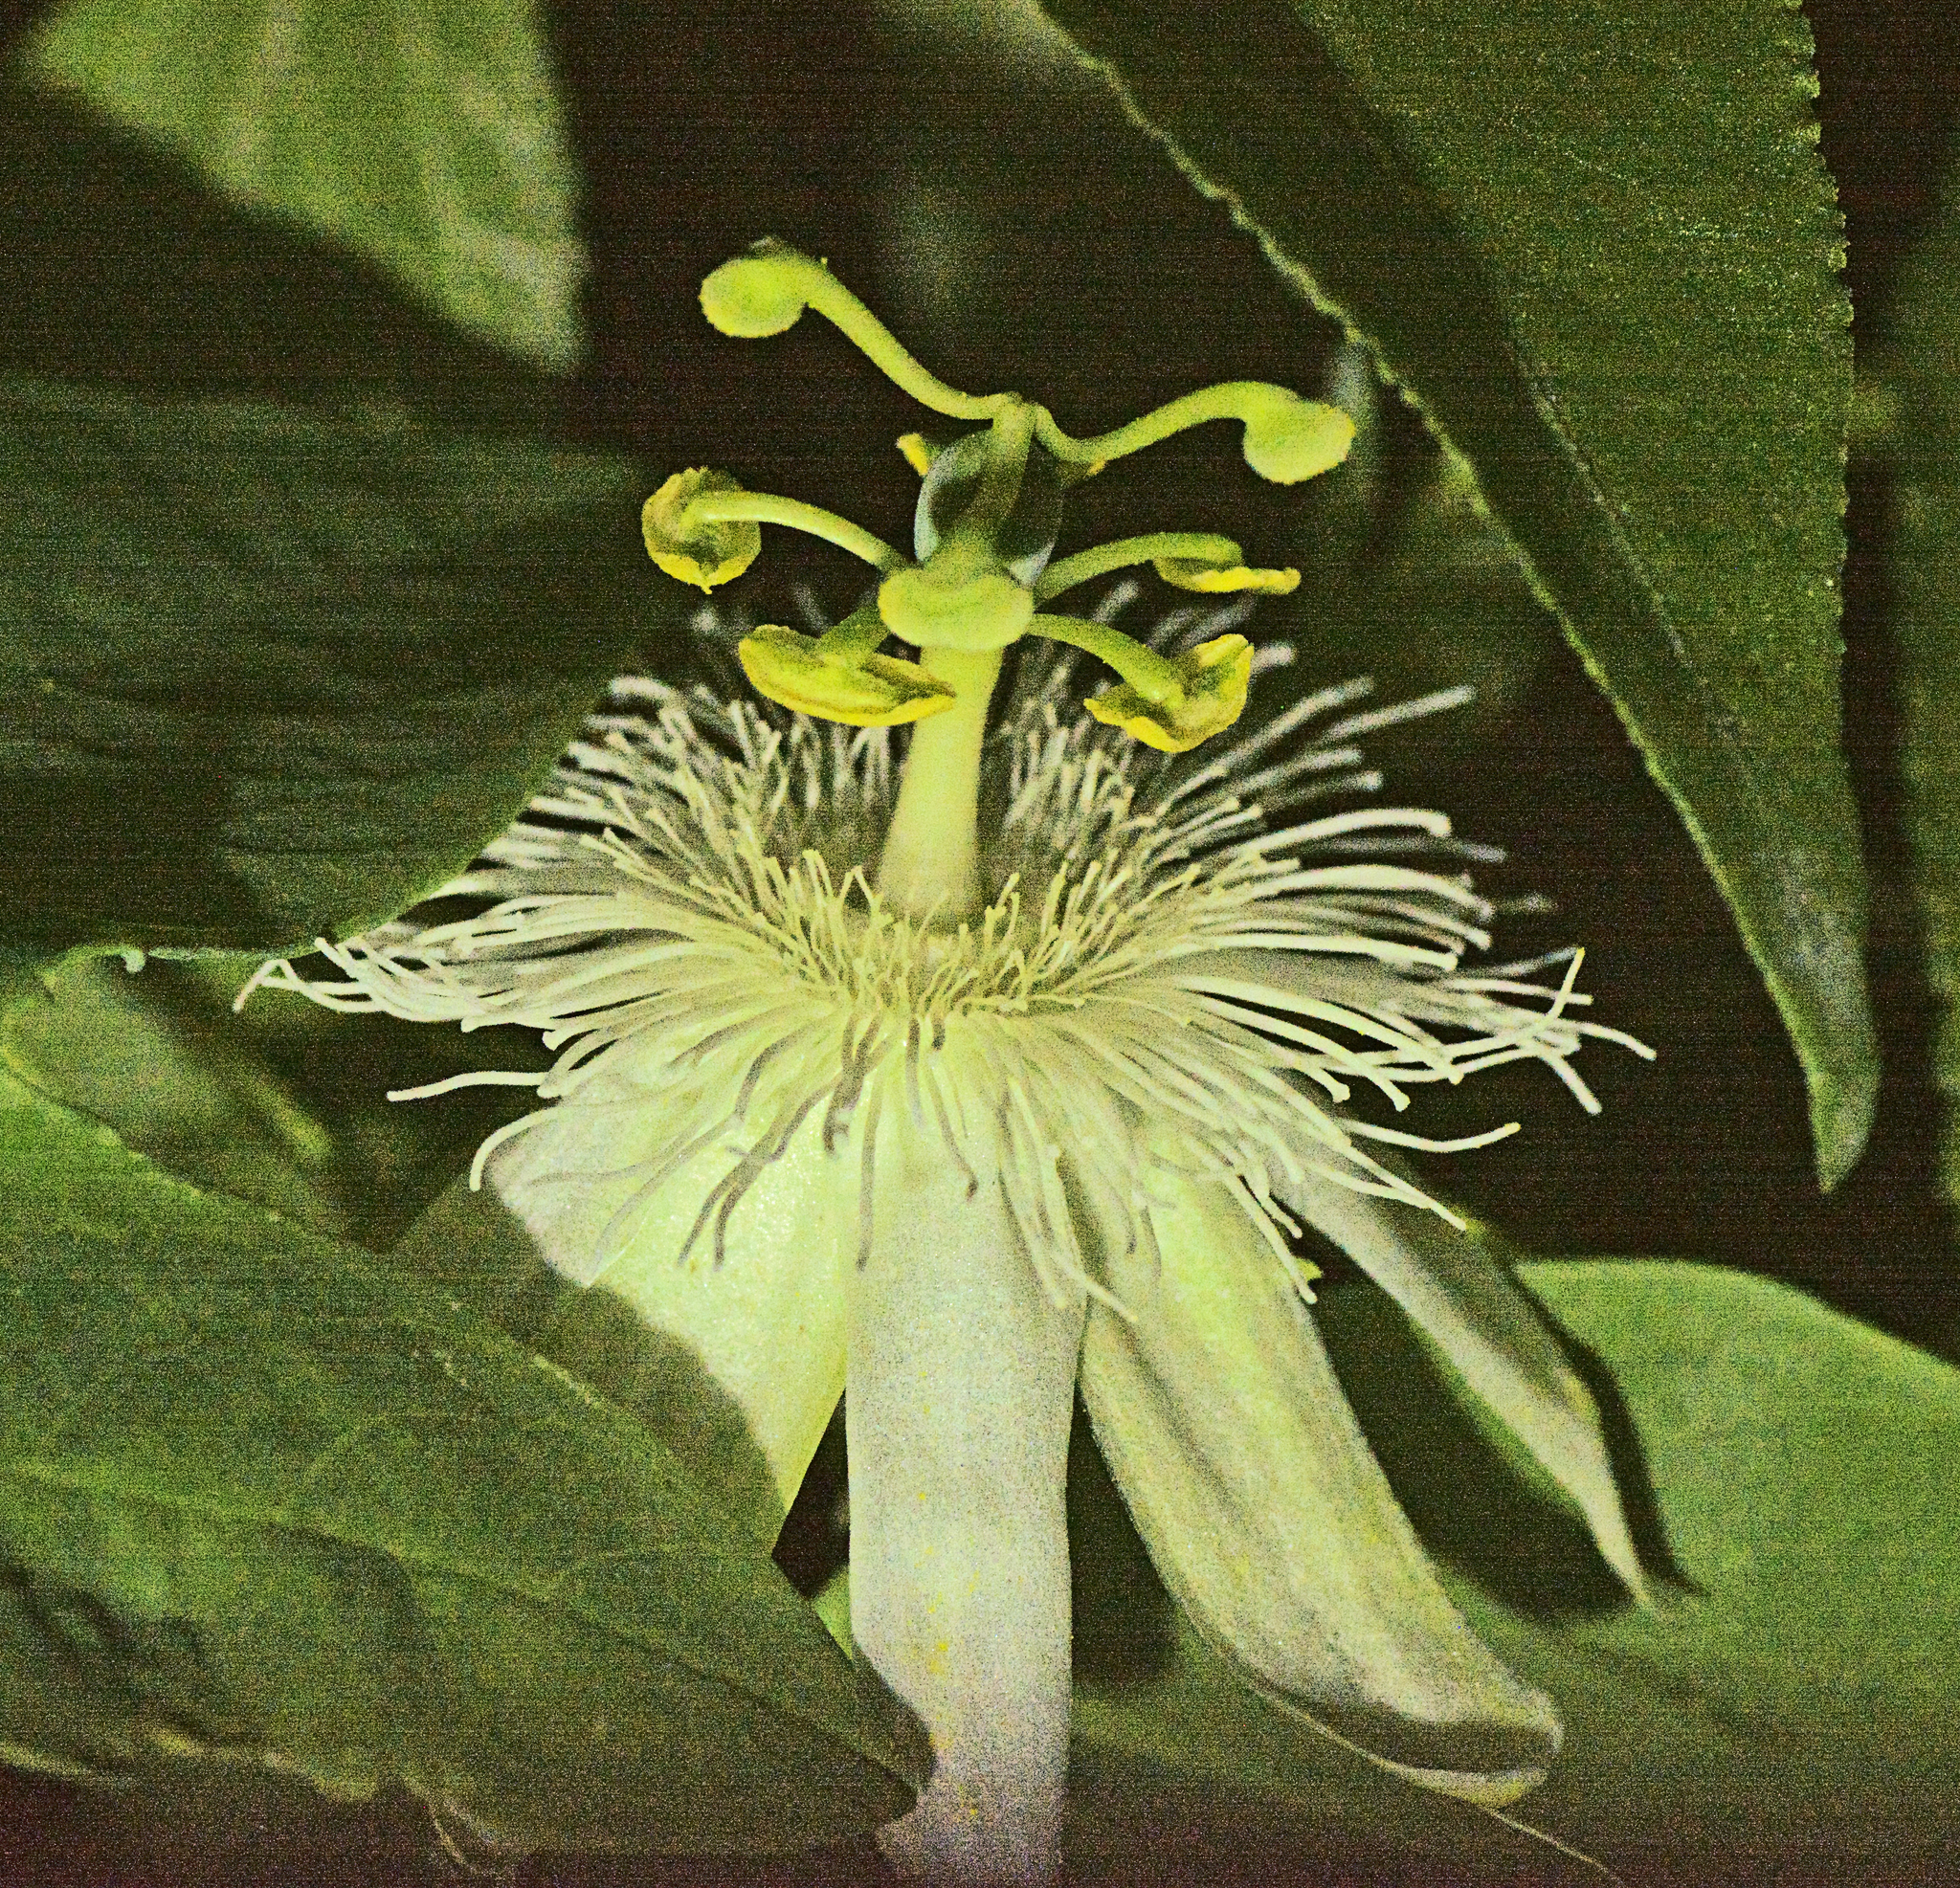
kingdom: Plantae
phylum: Tracheophyta
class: Magnoliopsida
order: Malpighiales
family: Passifloraceae
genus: Passiflora
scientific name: Passiflora subpeltata
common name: White passionflower
